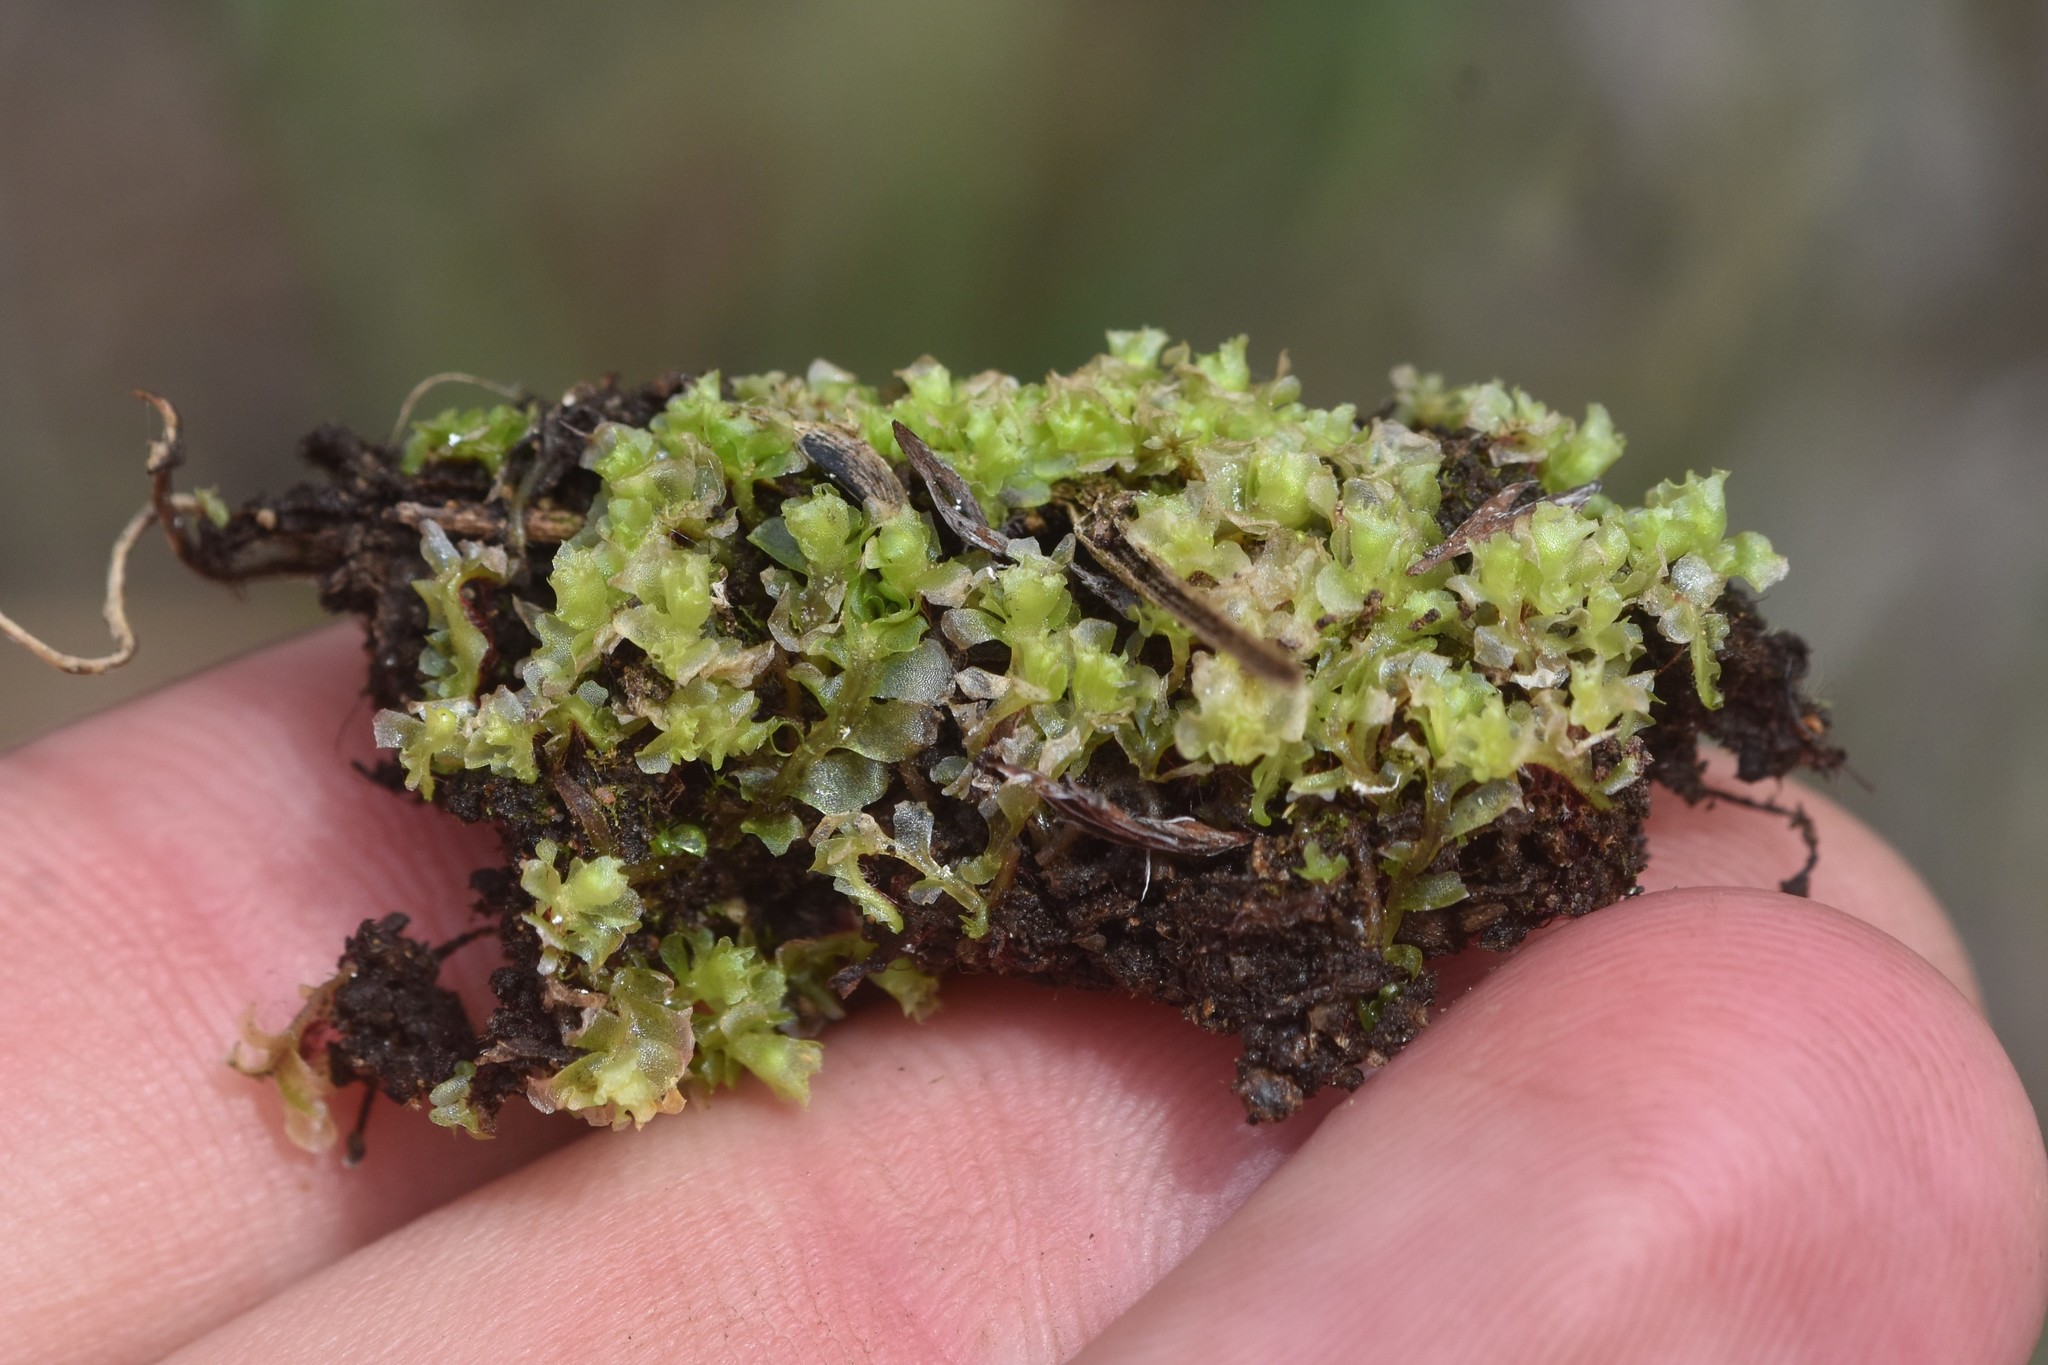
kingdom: Plantae
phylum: Marchantiophyta
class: Jungermanniopsida
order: Fossombroniales
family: Fossombroniaceae
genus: Fossombronia
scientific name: Fossombronia longiseta
